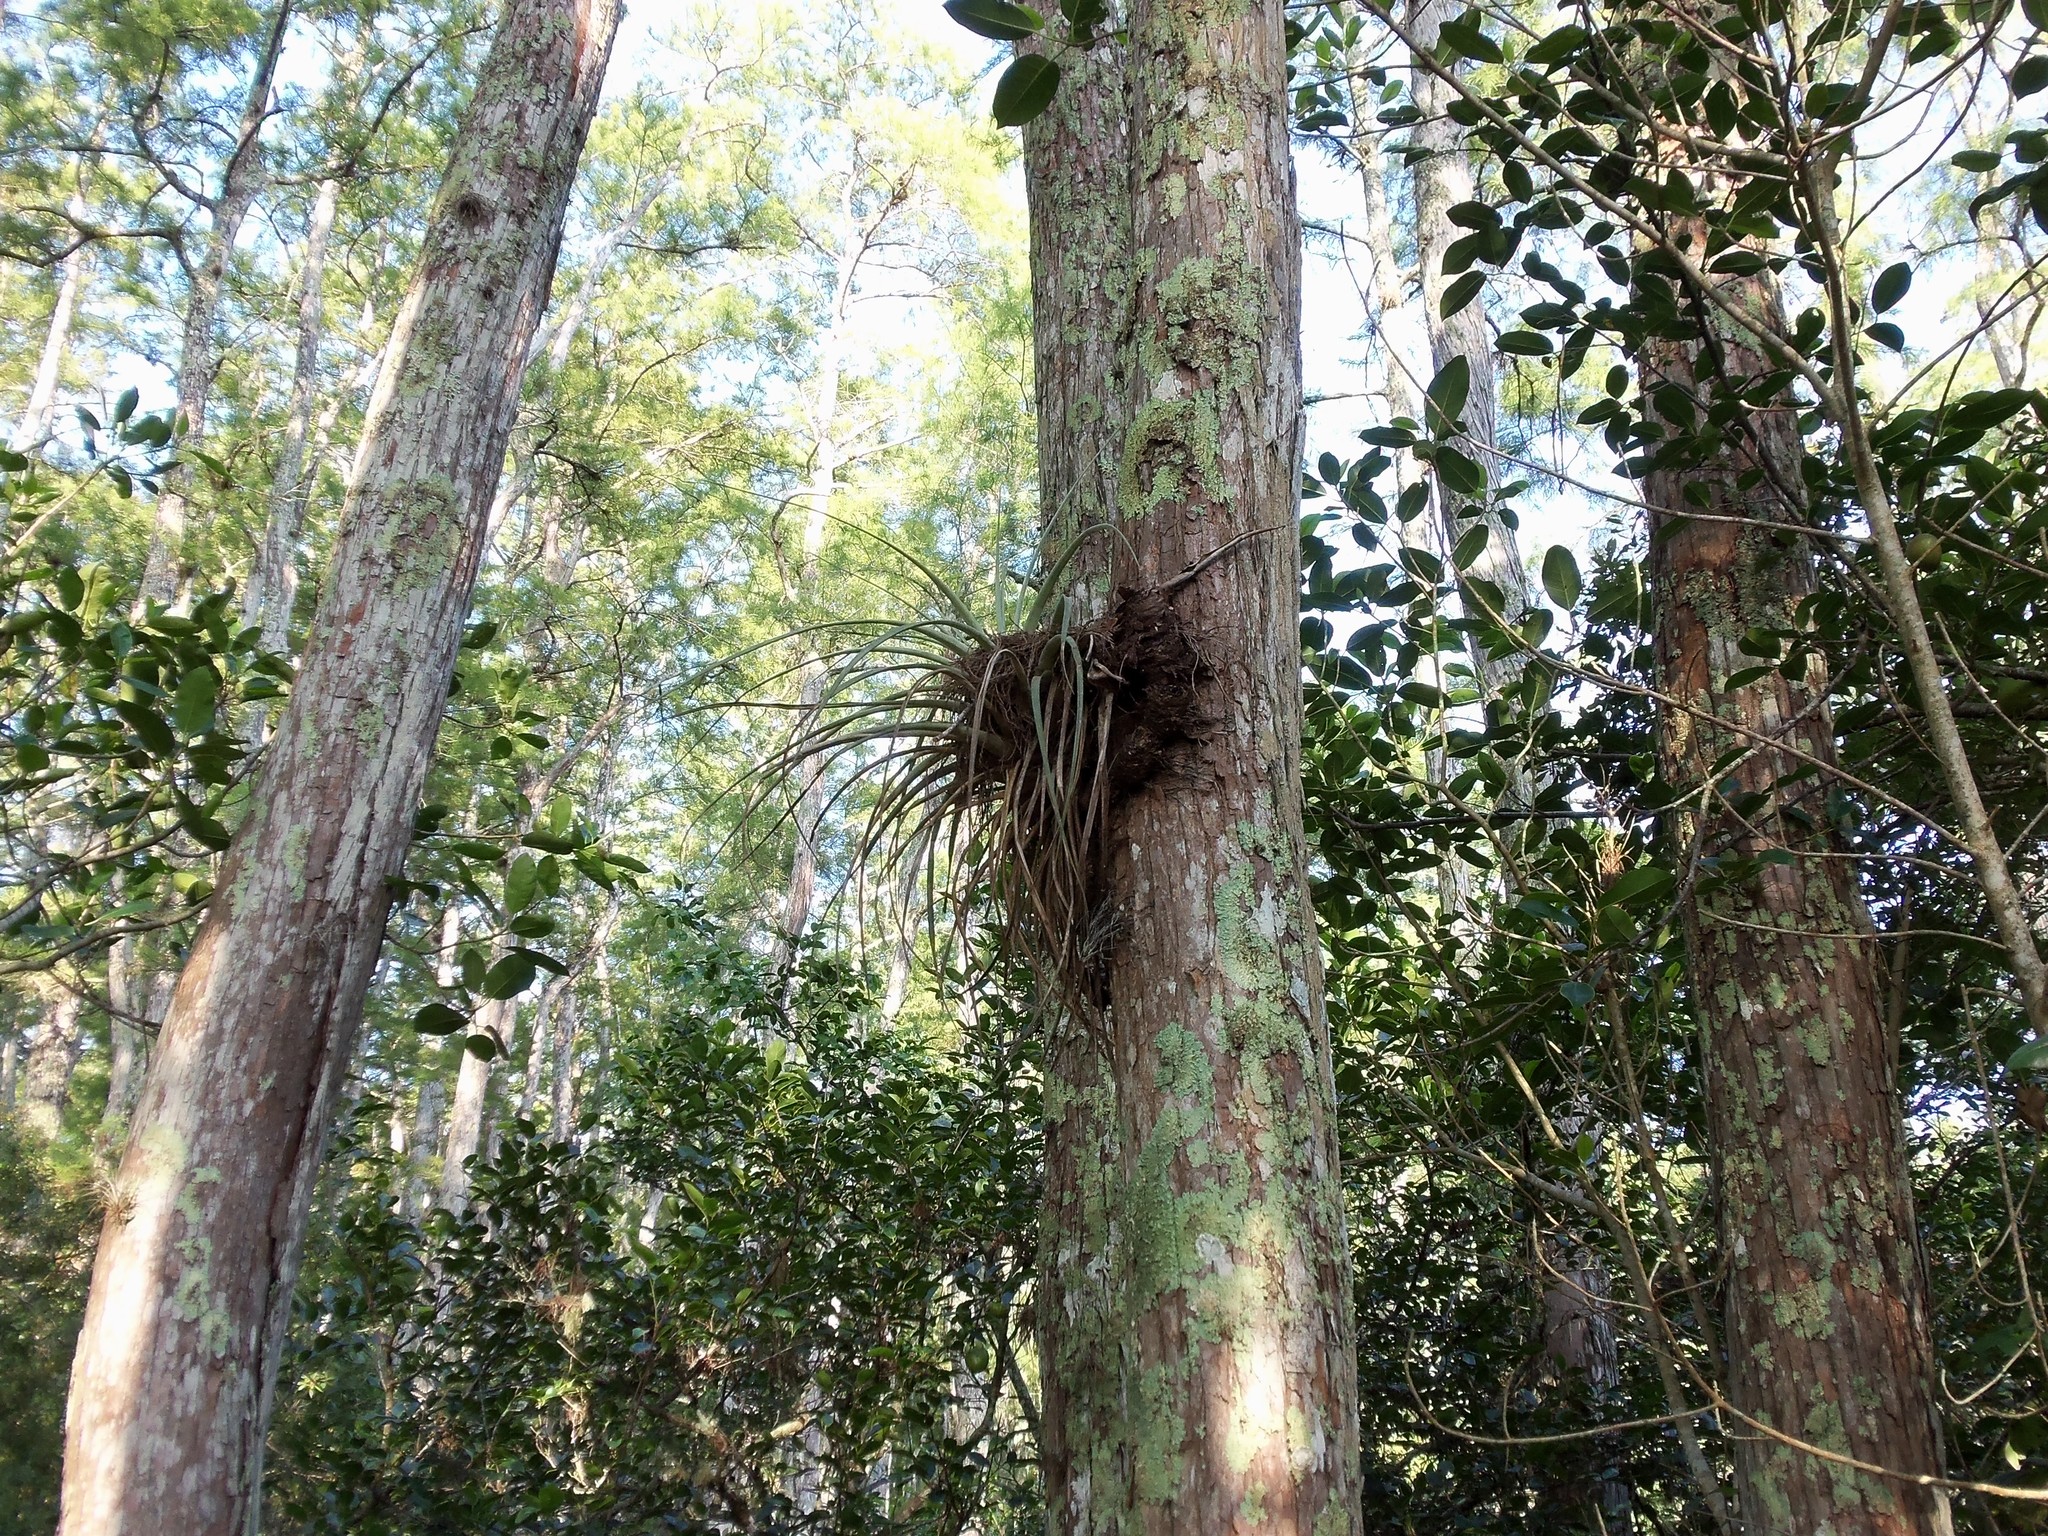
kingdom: Plantae
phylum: Tracheophyta
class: Liliopsida
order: Poales
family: Bromeliaceae
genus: Tillandsia
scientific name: Tillandsia fasciculata
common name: Giant airplant
